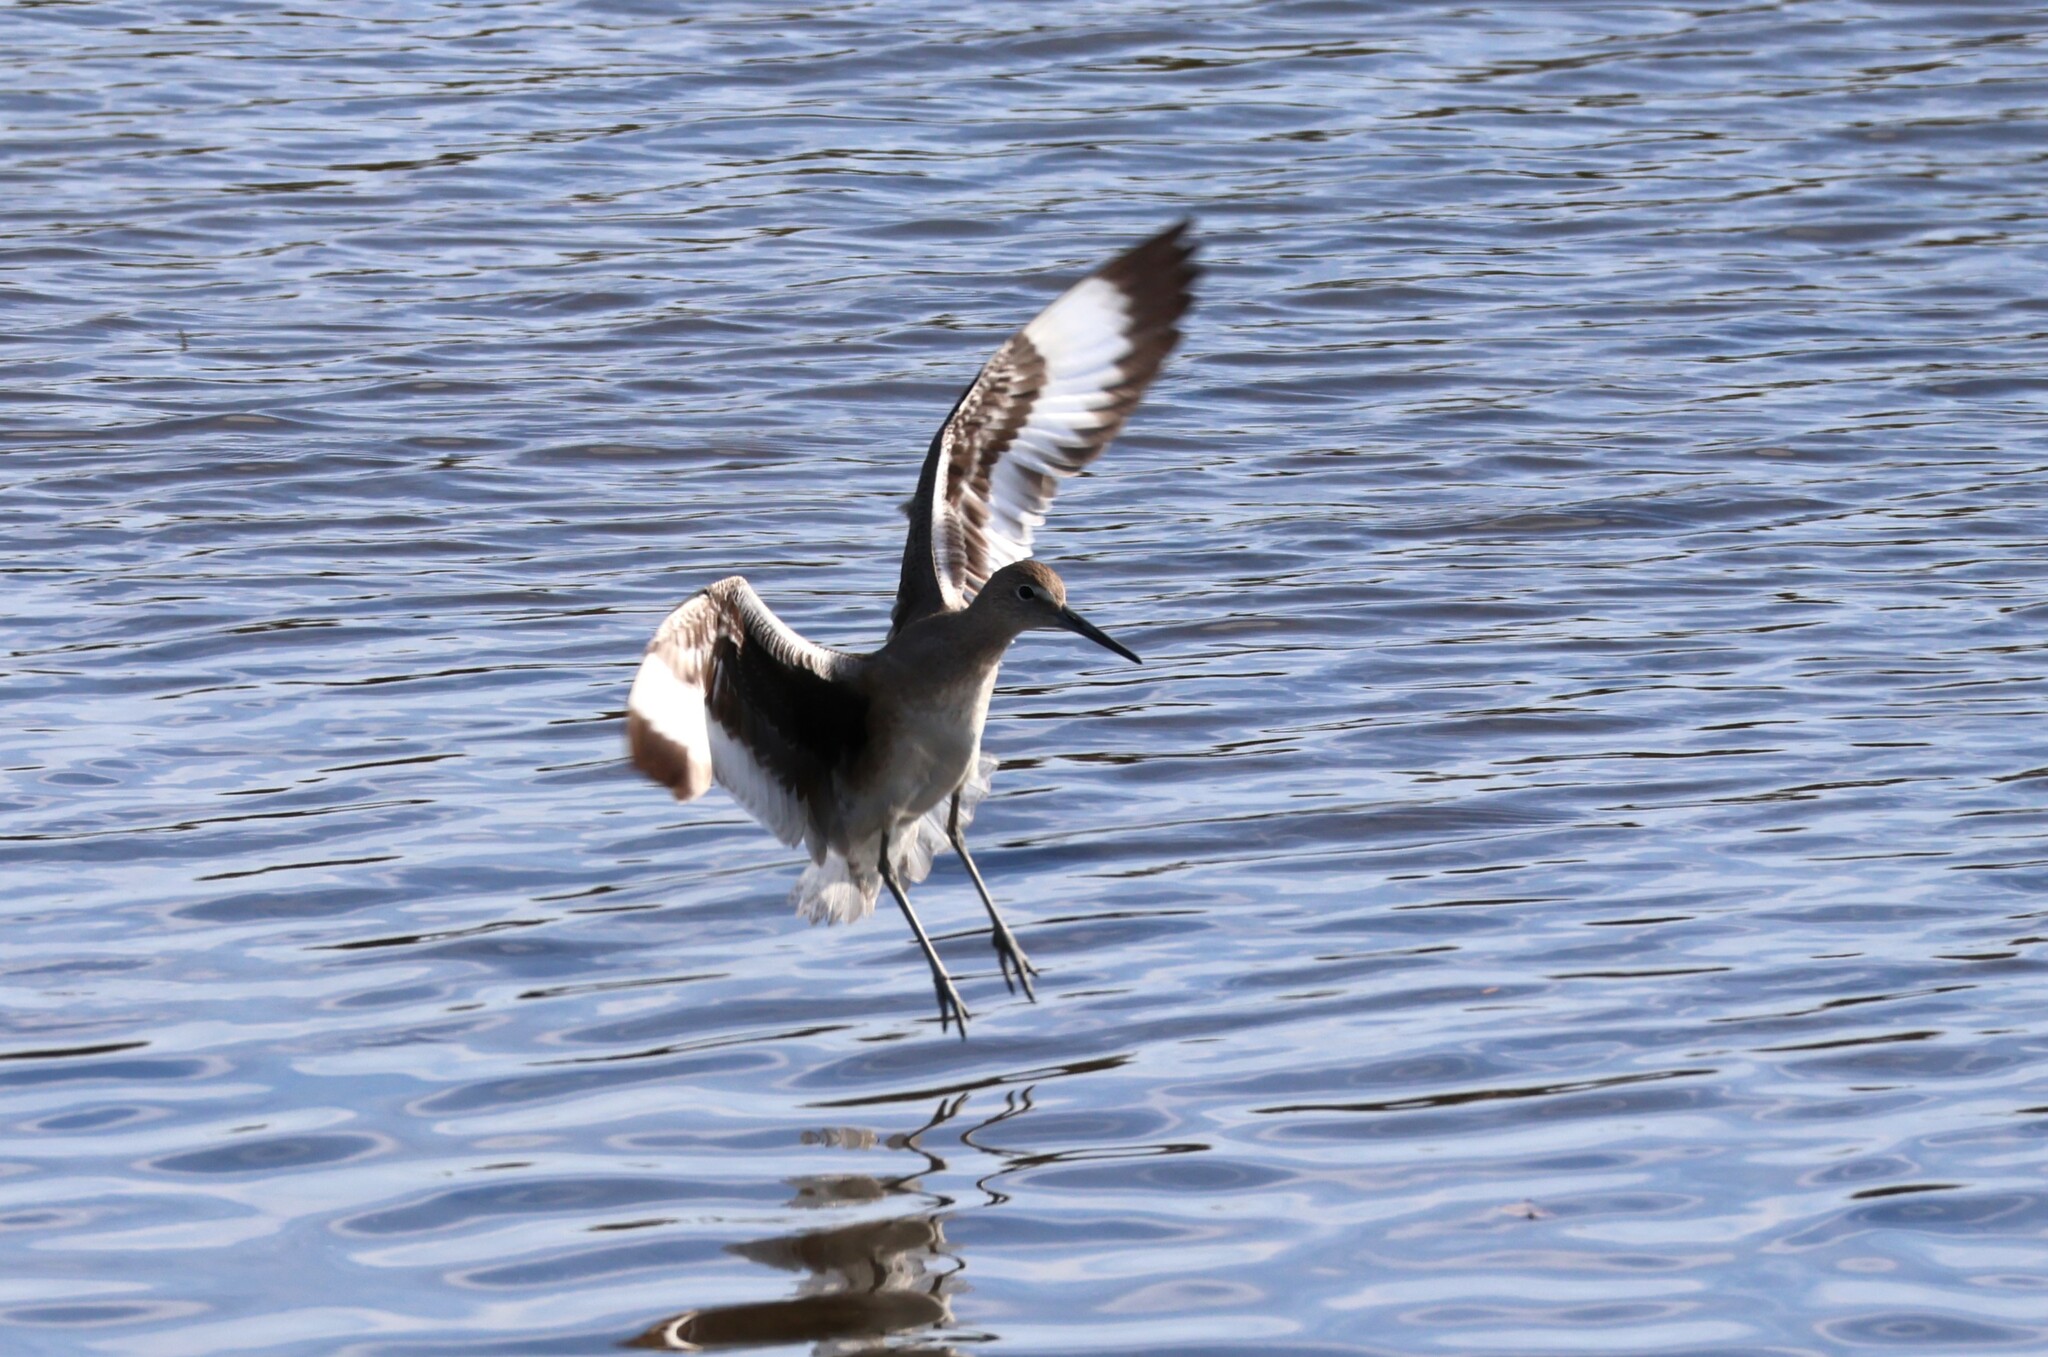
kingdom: Animalia
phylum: Chordata
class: Aves
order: Charadriiformes
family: Scolopacidae
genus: Tringa
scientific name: Tringa semipalmata
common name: Willet
